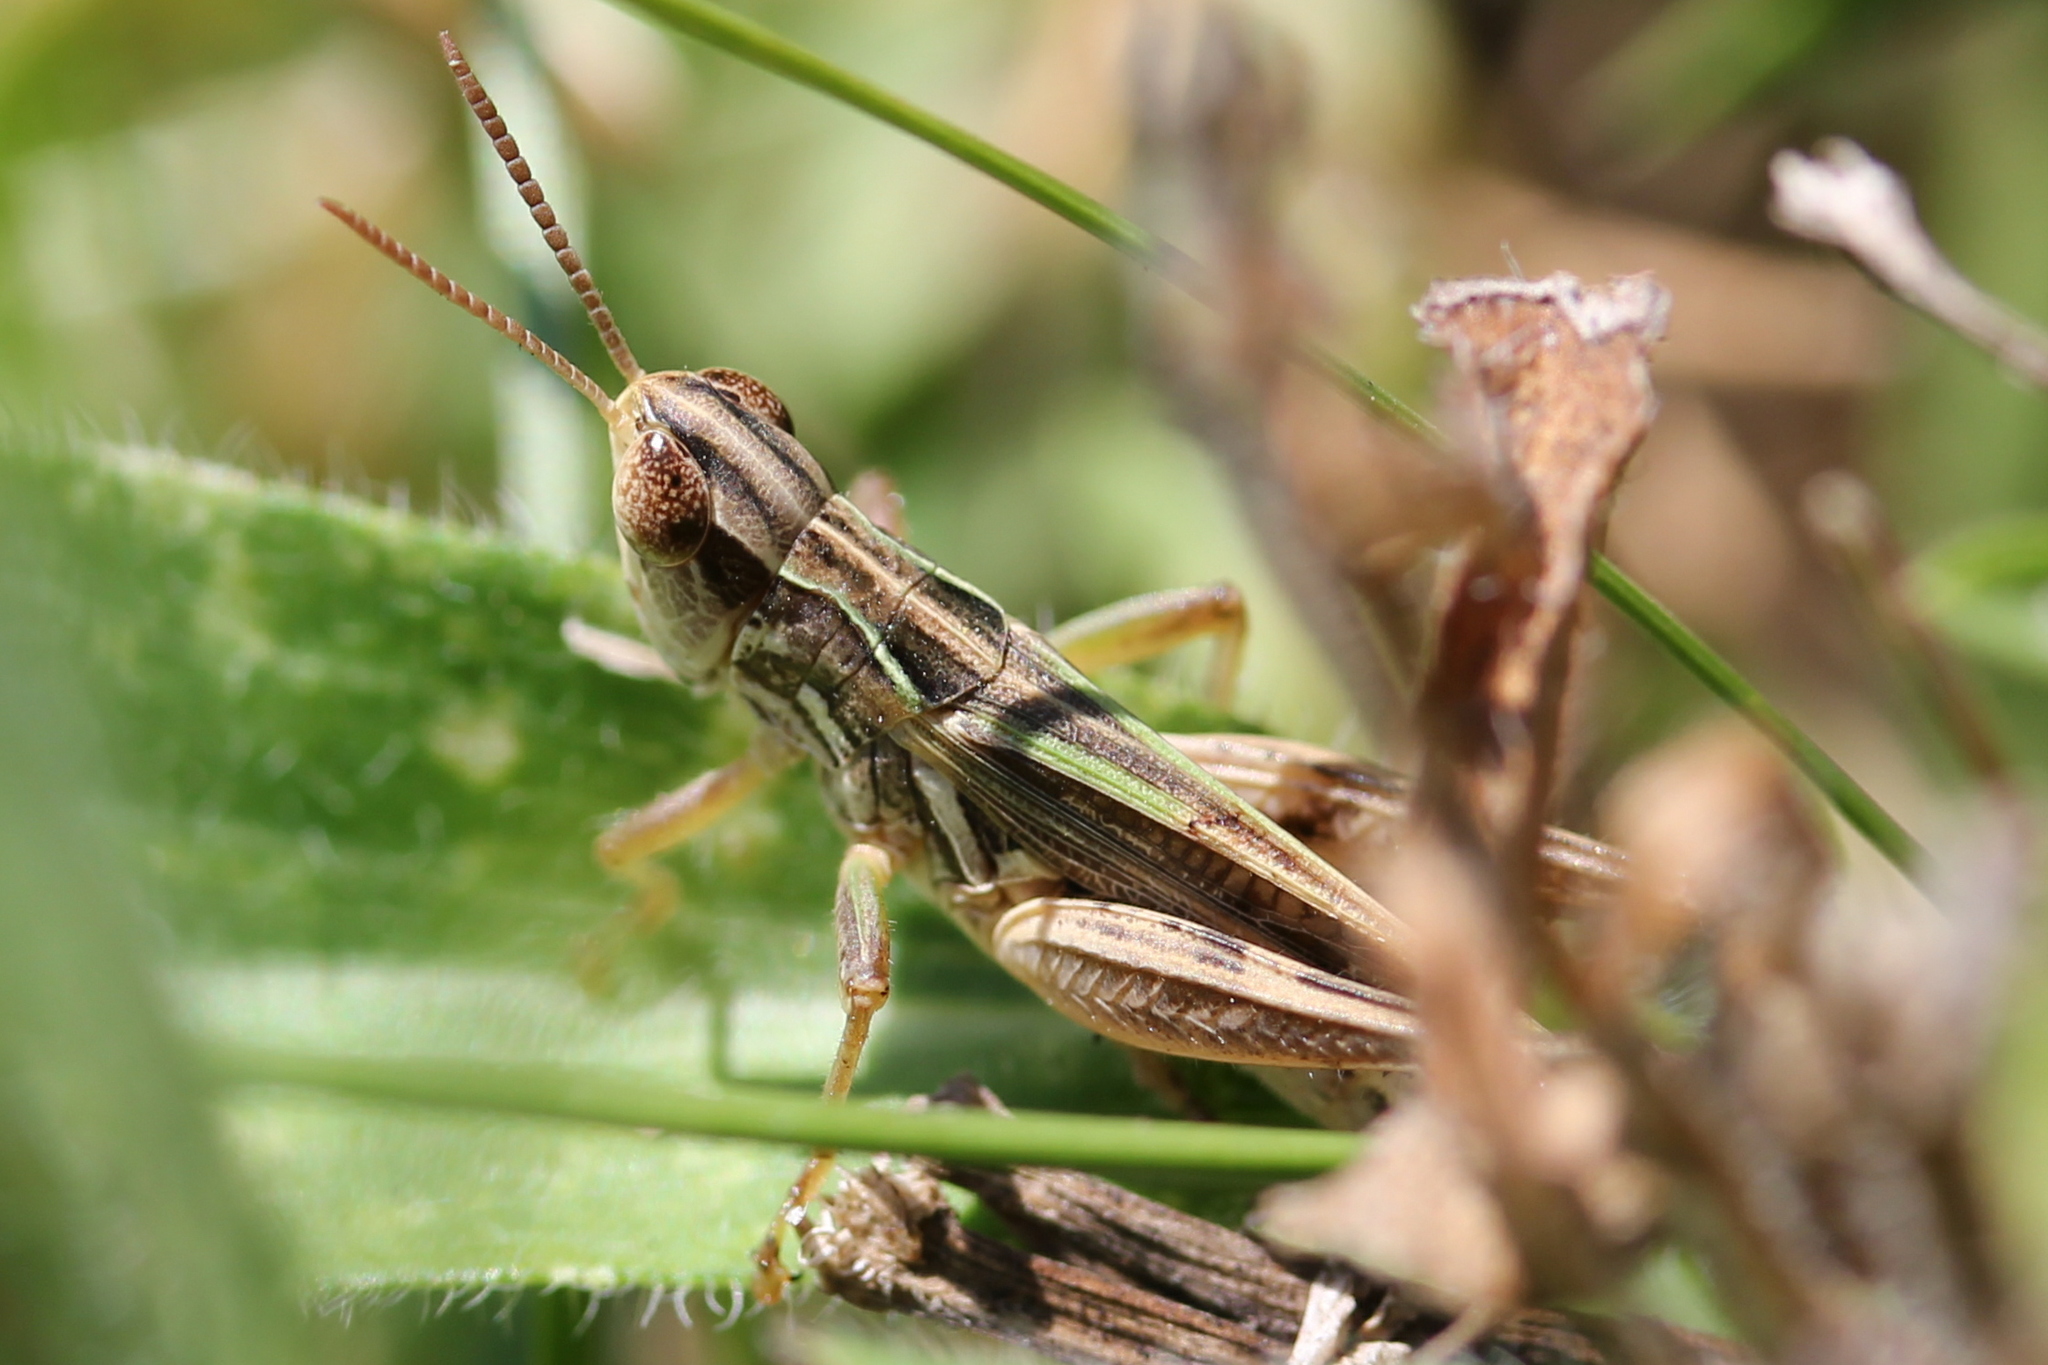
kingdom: Animalia
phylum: Arthropoda
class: Insecta
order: Orthoptera
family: Acrididae
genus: Orphulella
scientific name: Orphulella speciosa
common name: Pasture grasshopper
